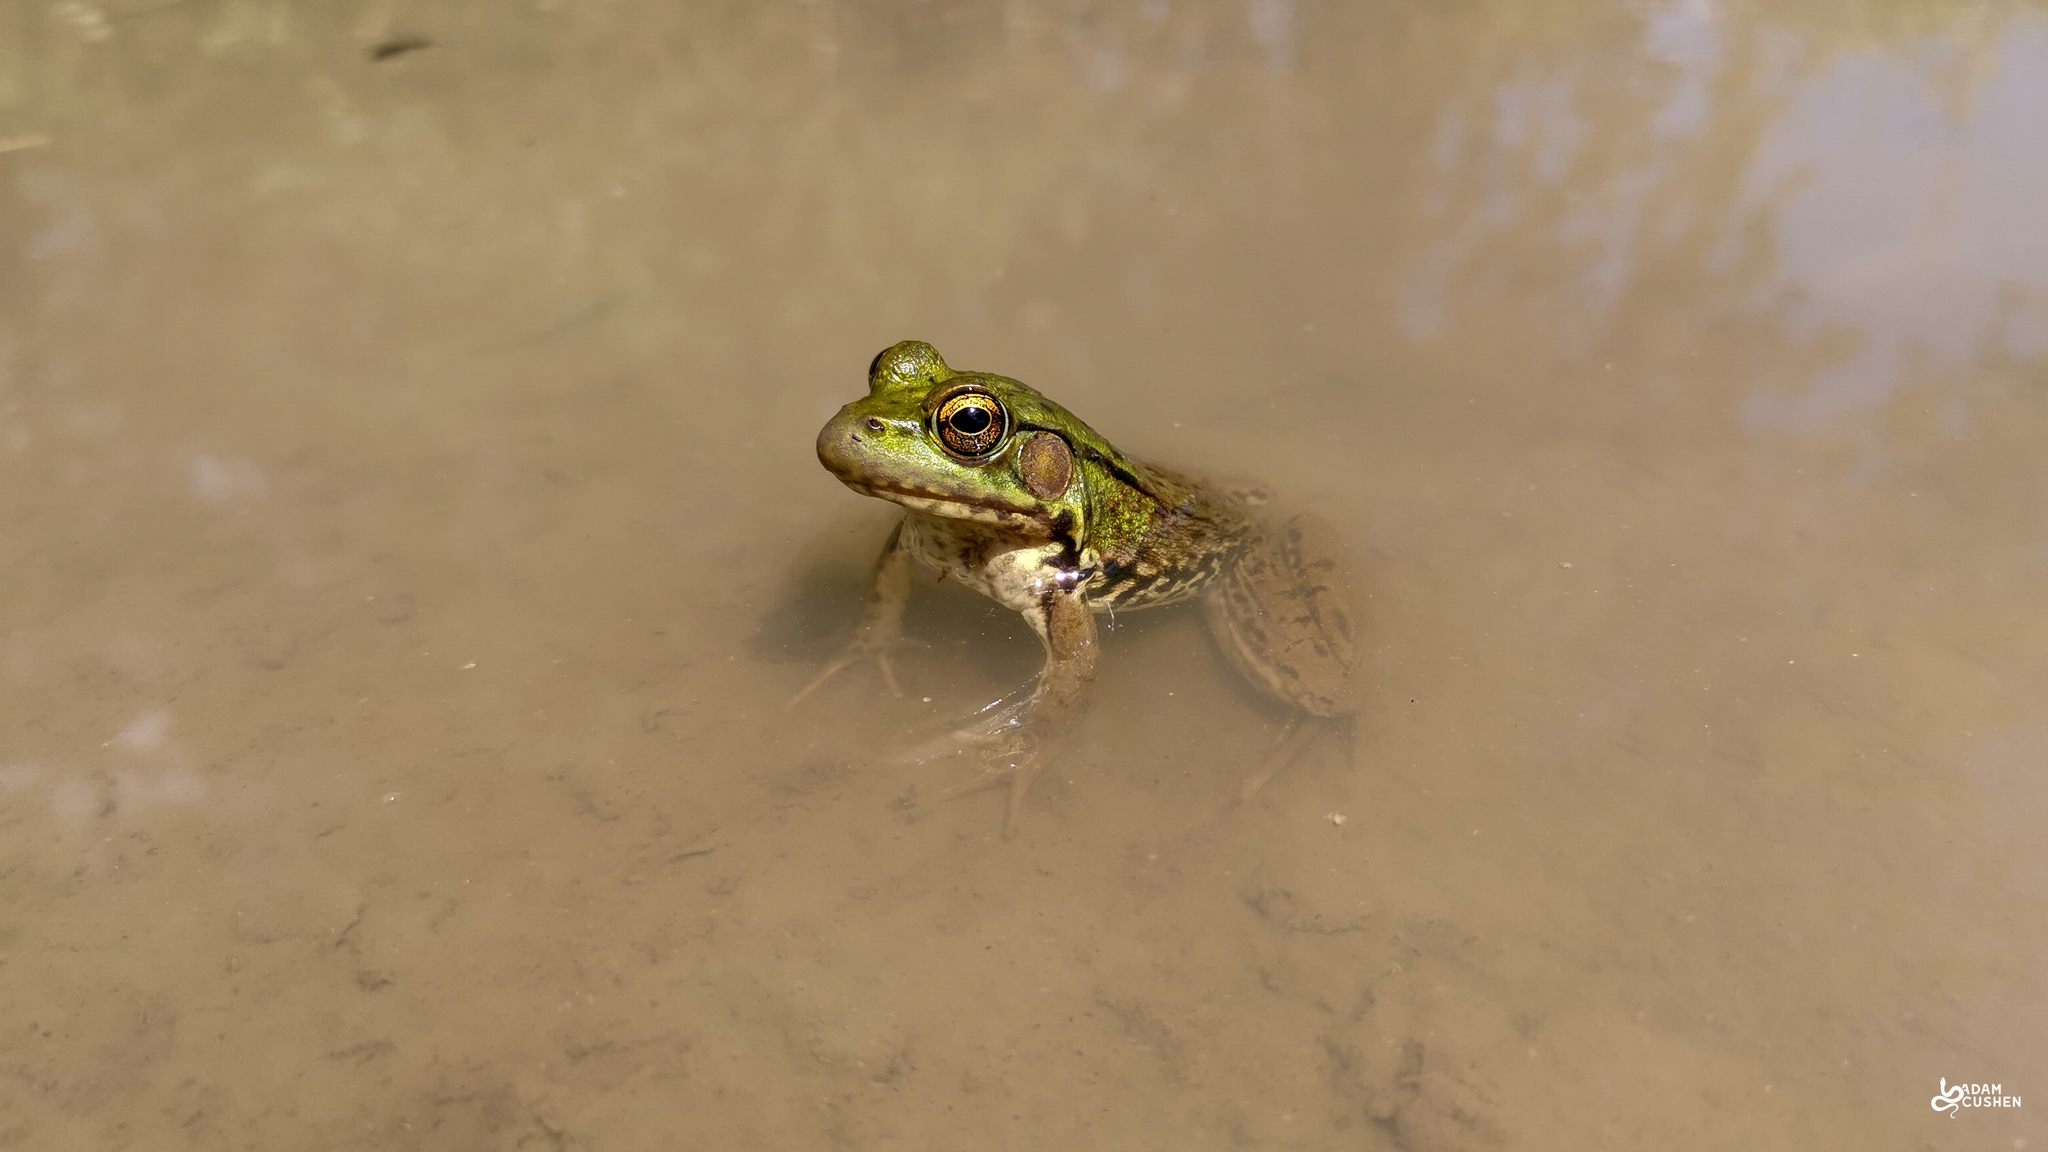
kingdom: Animalia
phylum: Chordata
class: Amphibia
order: Anura
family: Ranidae
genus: Lithobates
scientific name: Lithobates clamitans
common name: Green frog
